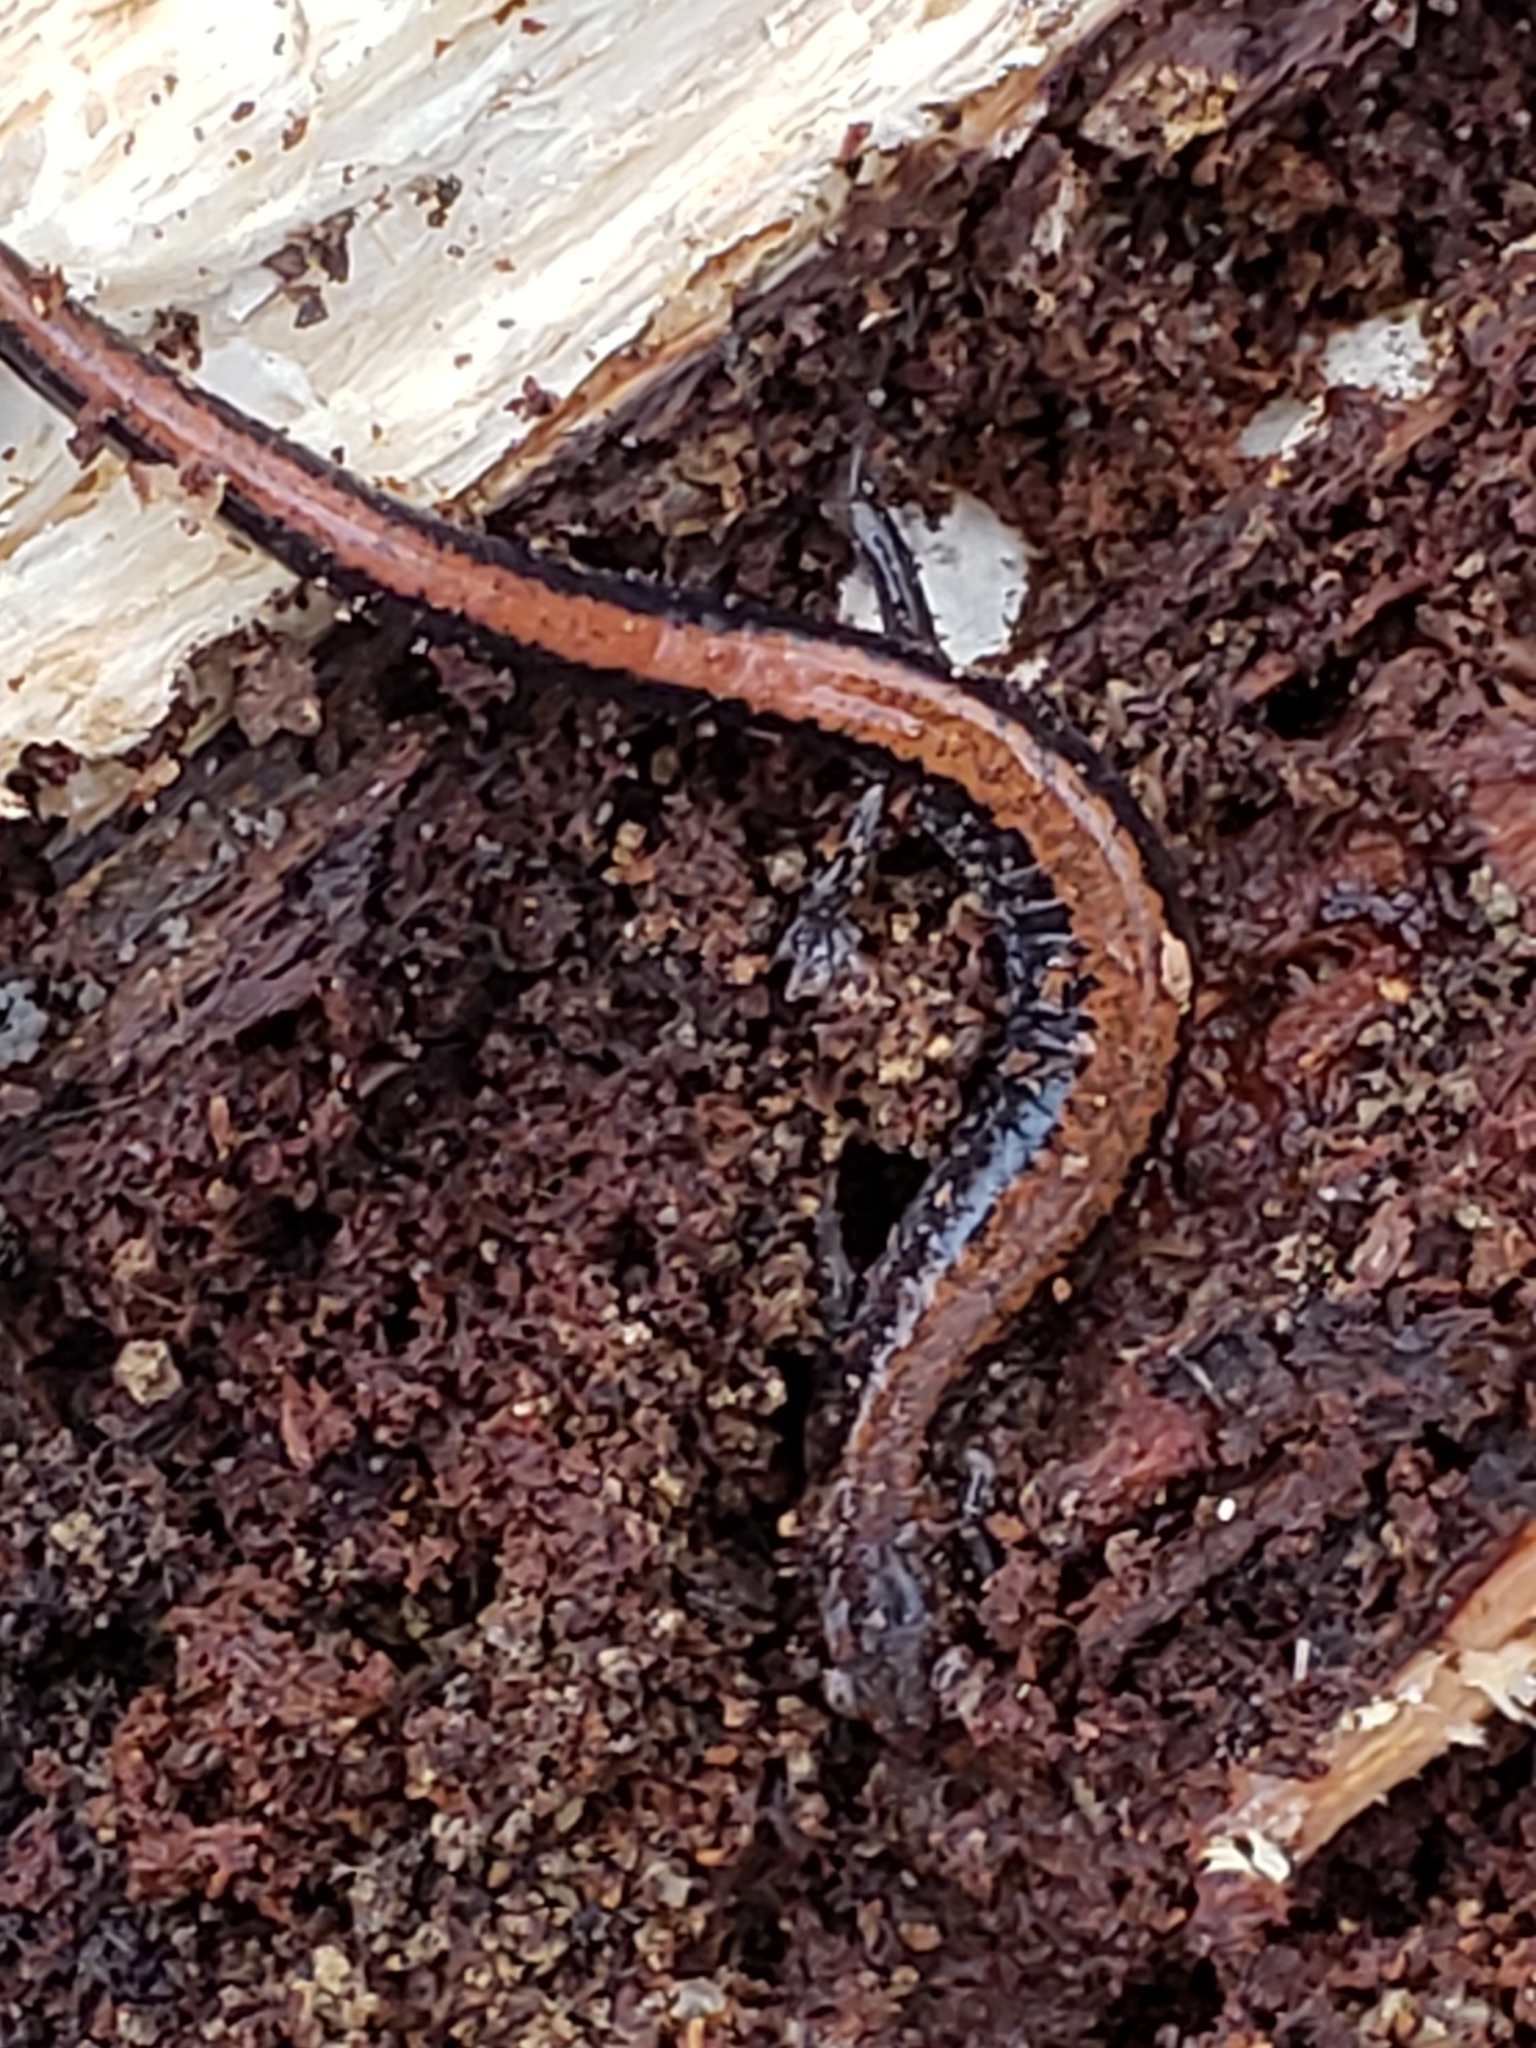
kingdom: Animalia
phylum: Chordata
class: Amphibia
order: Caudata
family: Plethodontidae
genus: Plethodon
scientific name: Plethodon cinereus
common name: Redback salamander
